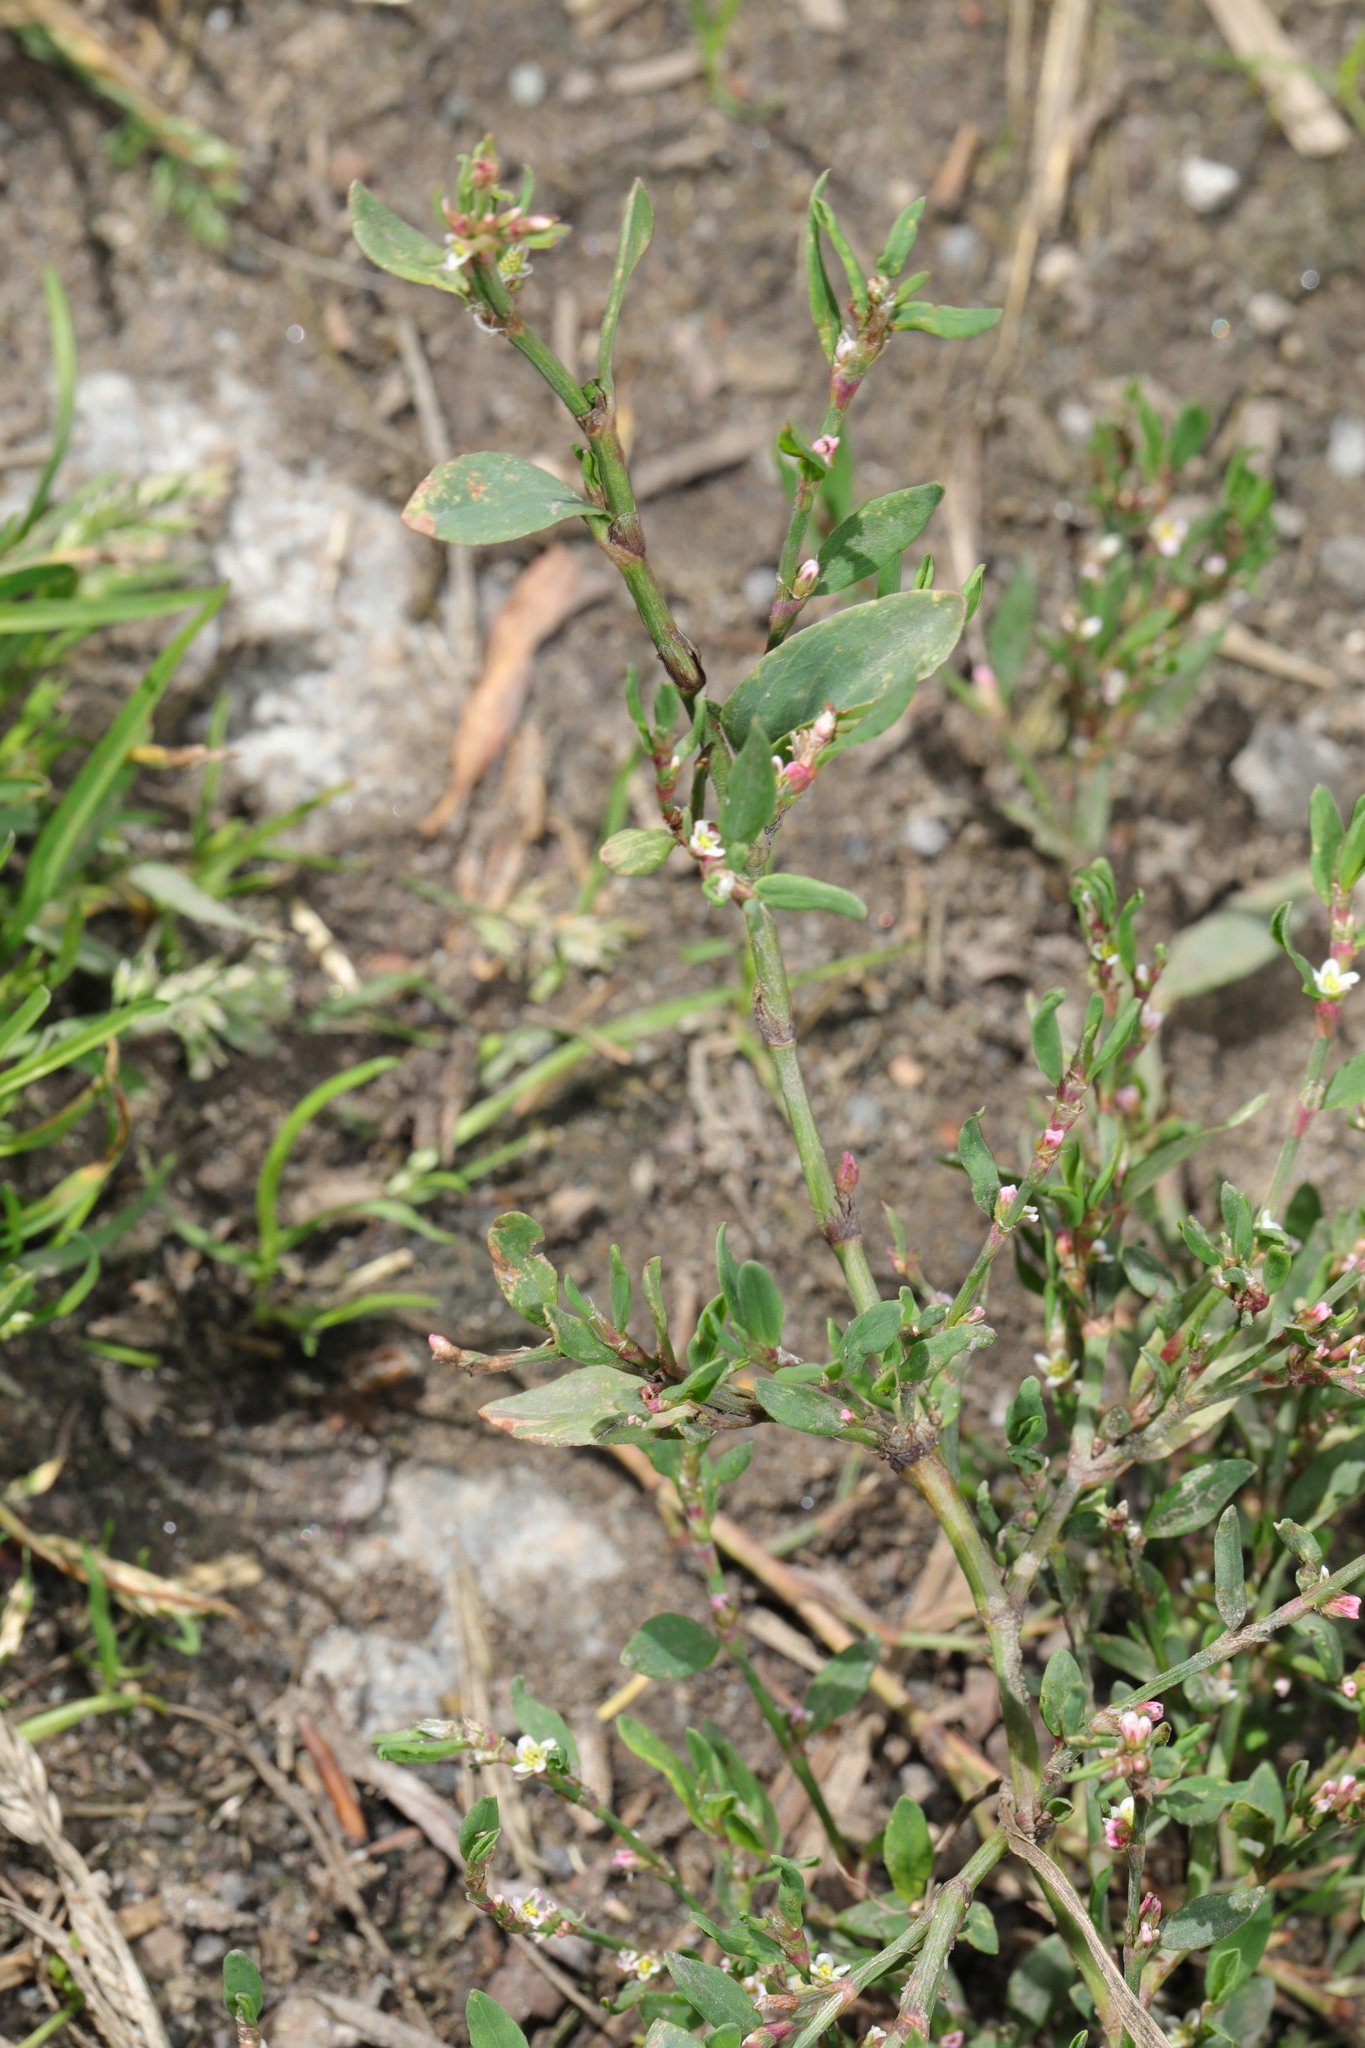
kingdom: Plantae
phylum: Tracheophyta
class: Magnoliopsida
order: Caryophyllales
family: Polygonaceae
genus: Polygonum
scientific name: Polygonum aviculare
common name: Prostrate knotweed
